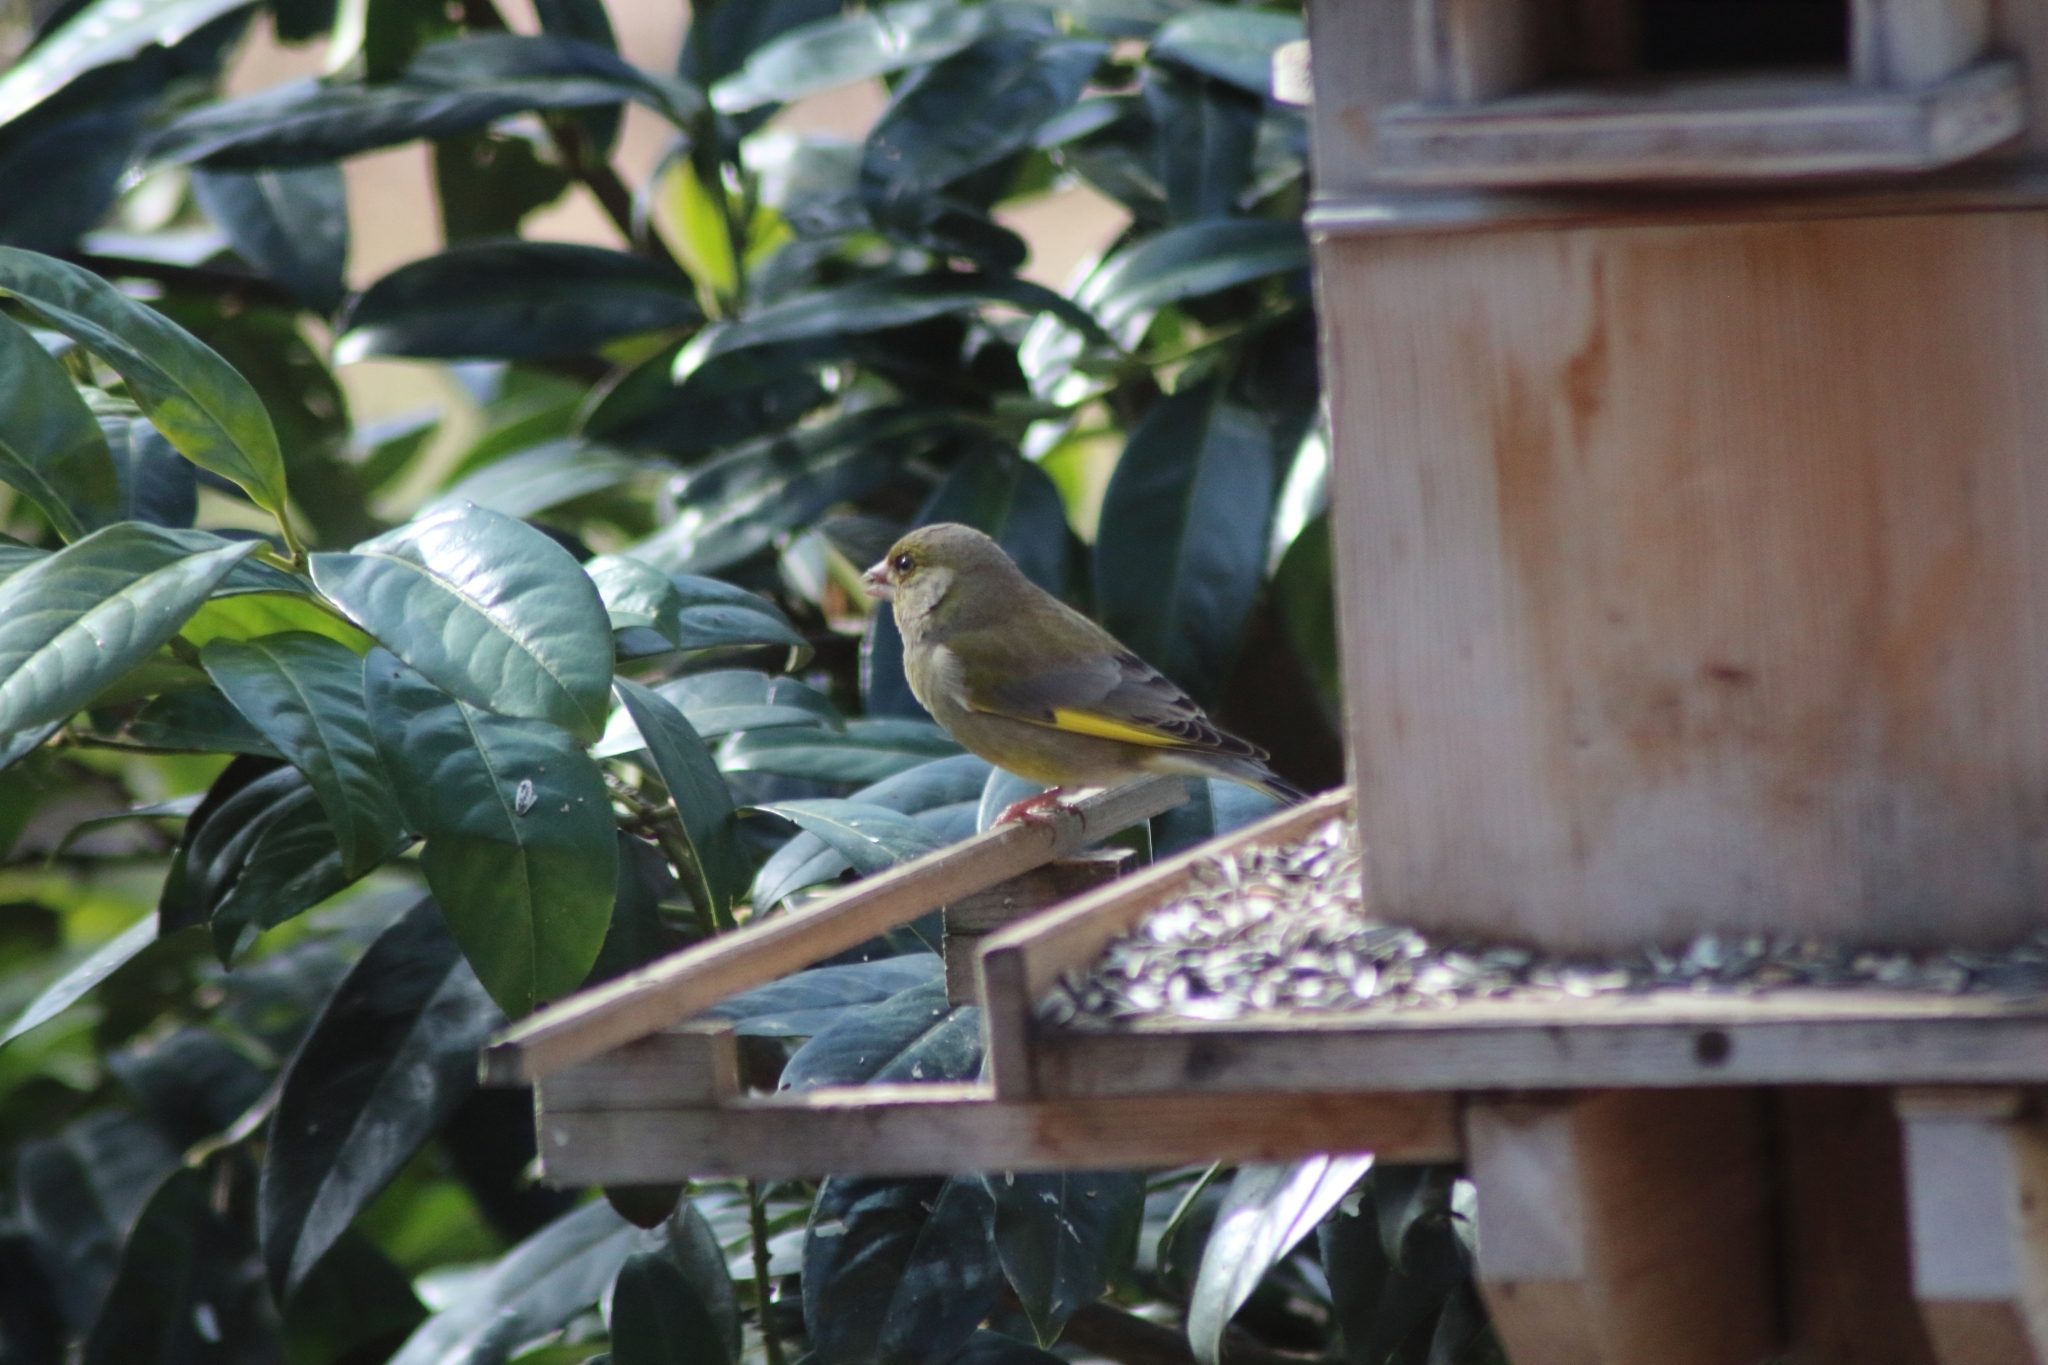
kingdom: Plantae
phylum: Tracheophyta
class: Liliopsida
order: Poales
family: Poaceae
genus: Chloris
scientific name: Chloris chloris
